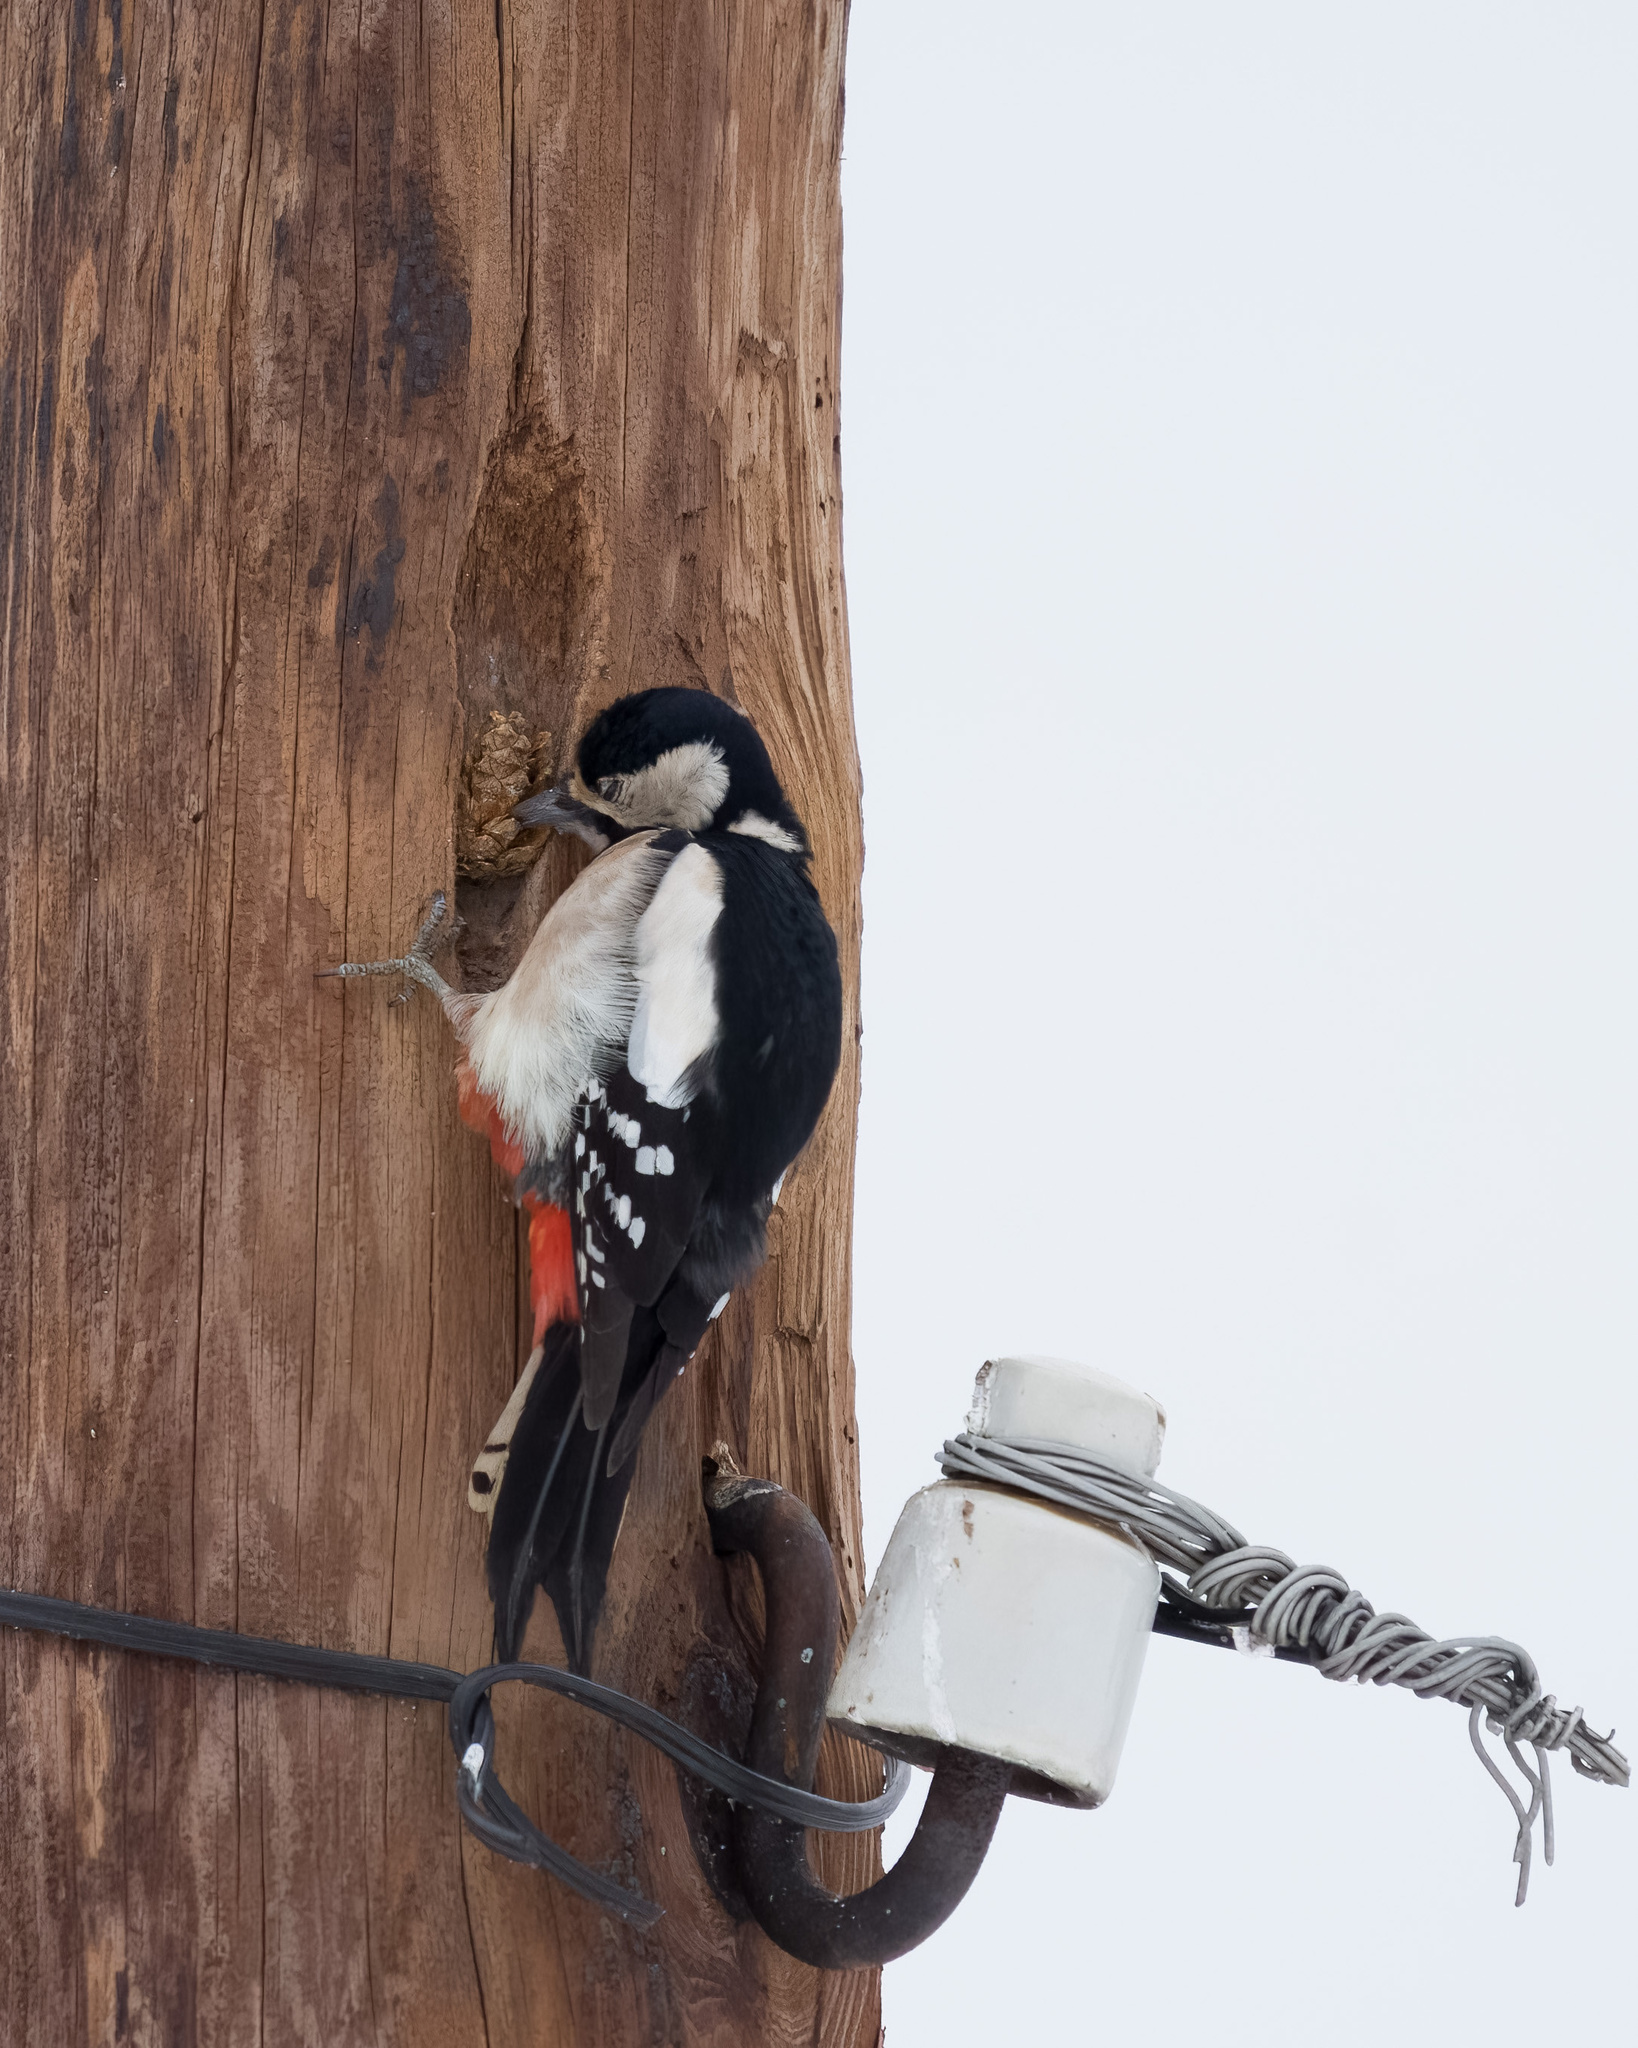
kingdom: Animalia
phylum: Chordata
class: Aves
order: Piciformes
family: Picidae
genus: Dendrocopos
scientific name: Dendrocopos major
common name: Great spotted woodpecker
